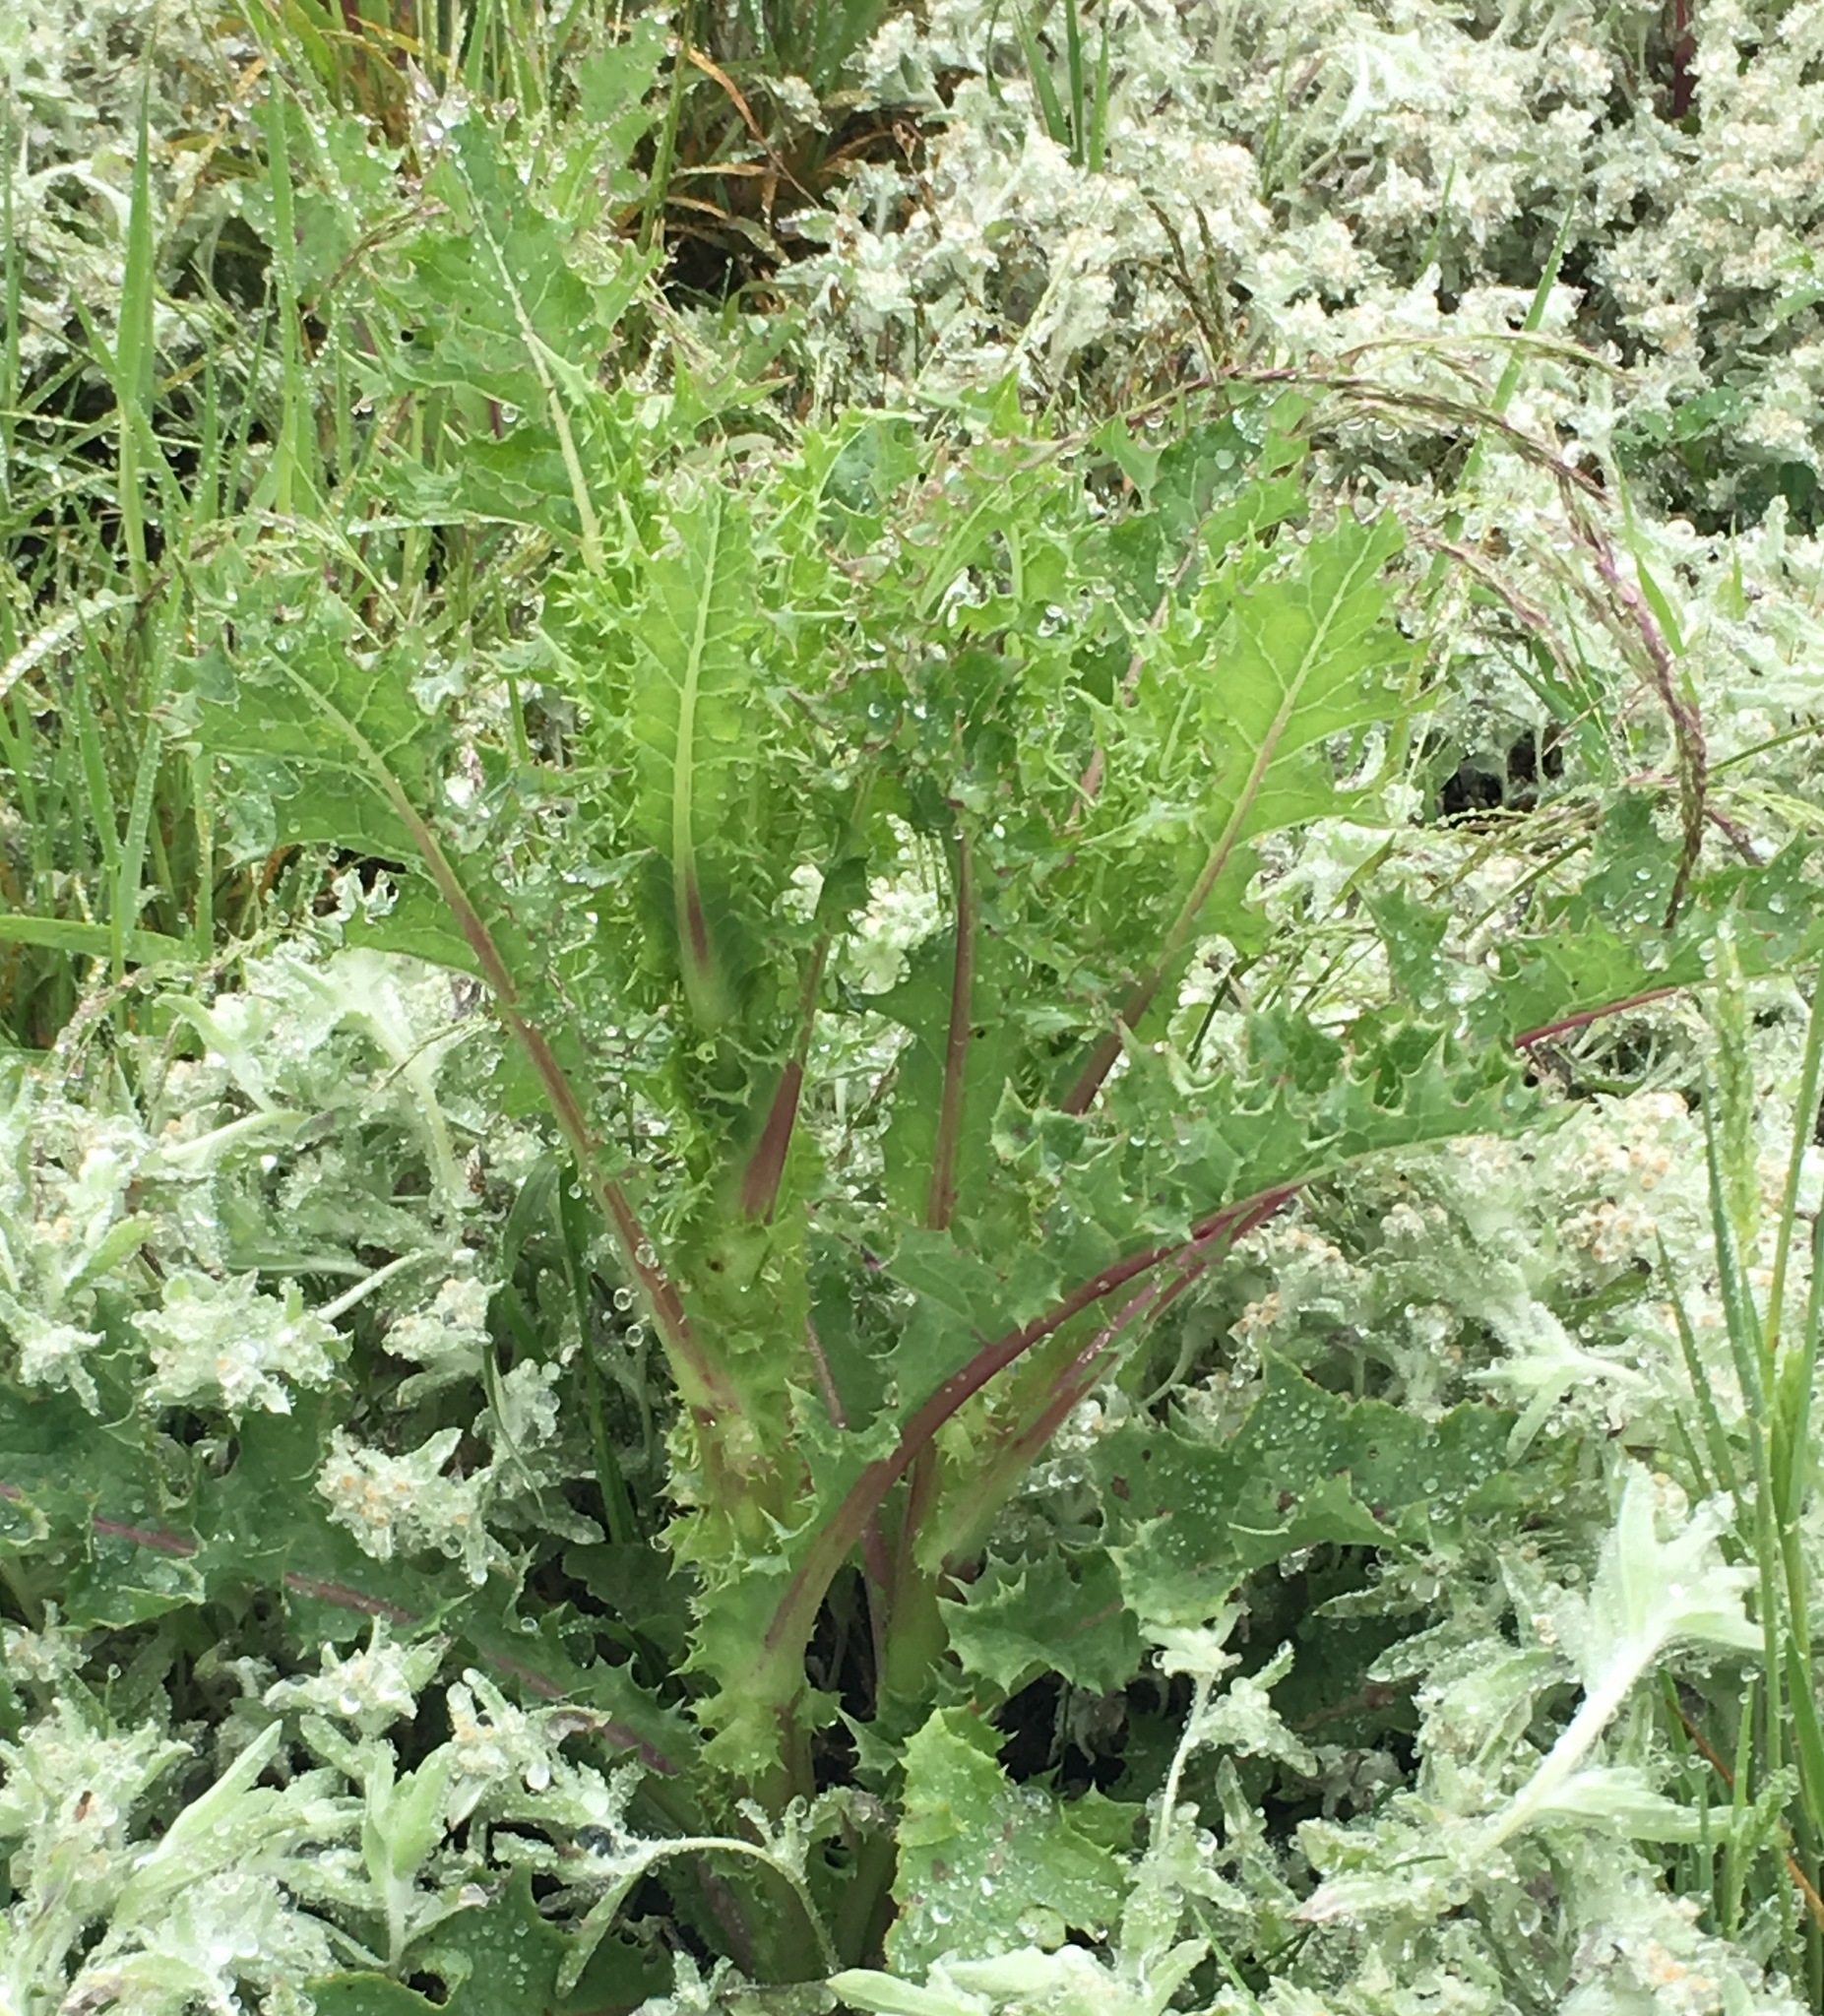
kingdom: Plantae
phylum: Tracheophyta
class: Magnoliopsida
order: Asterales
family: Asteraceae
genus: Sonchus
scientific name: Sonchus asper
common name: Prickly sow-thistle
